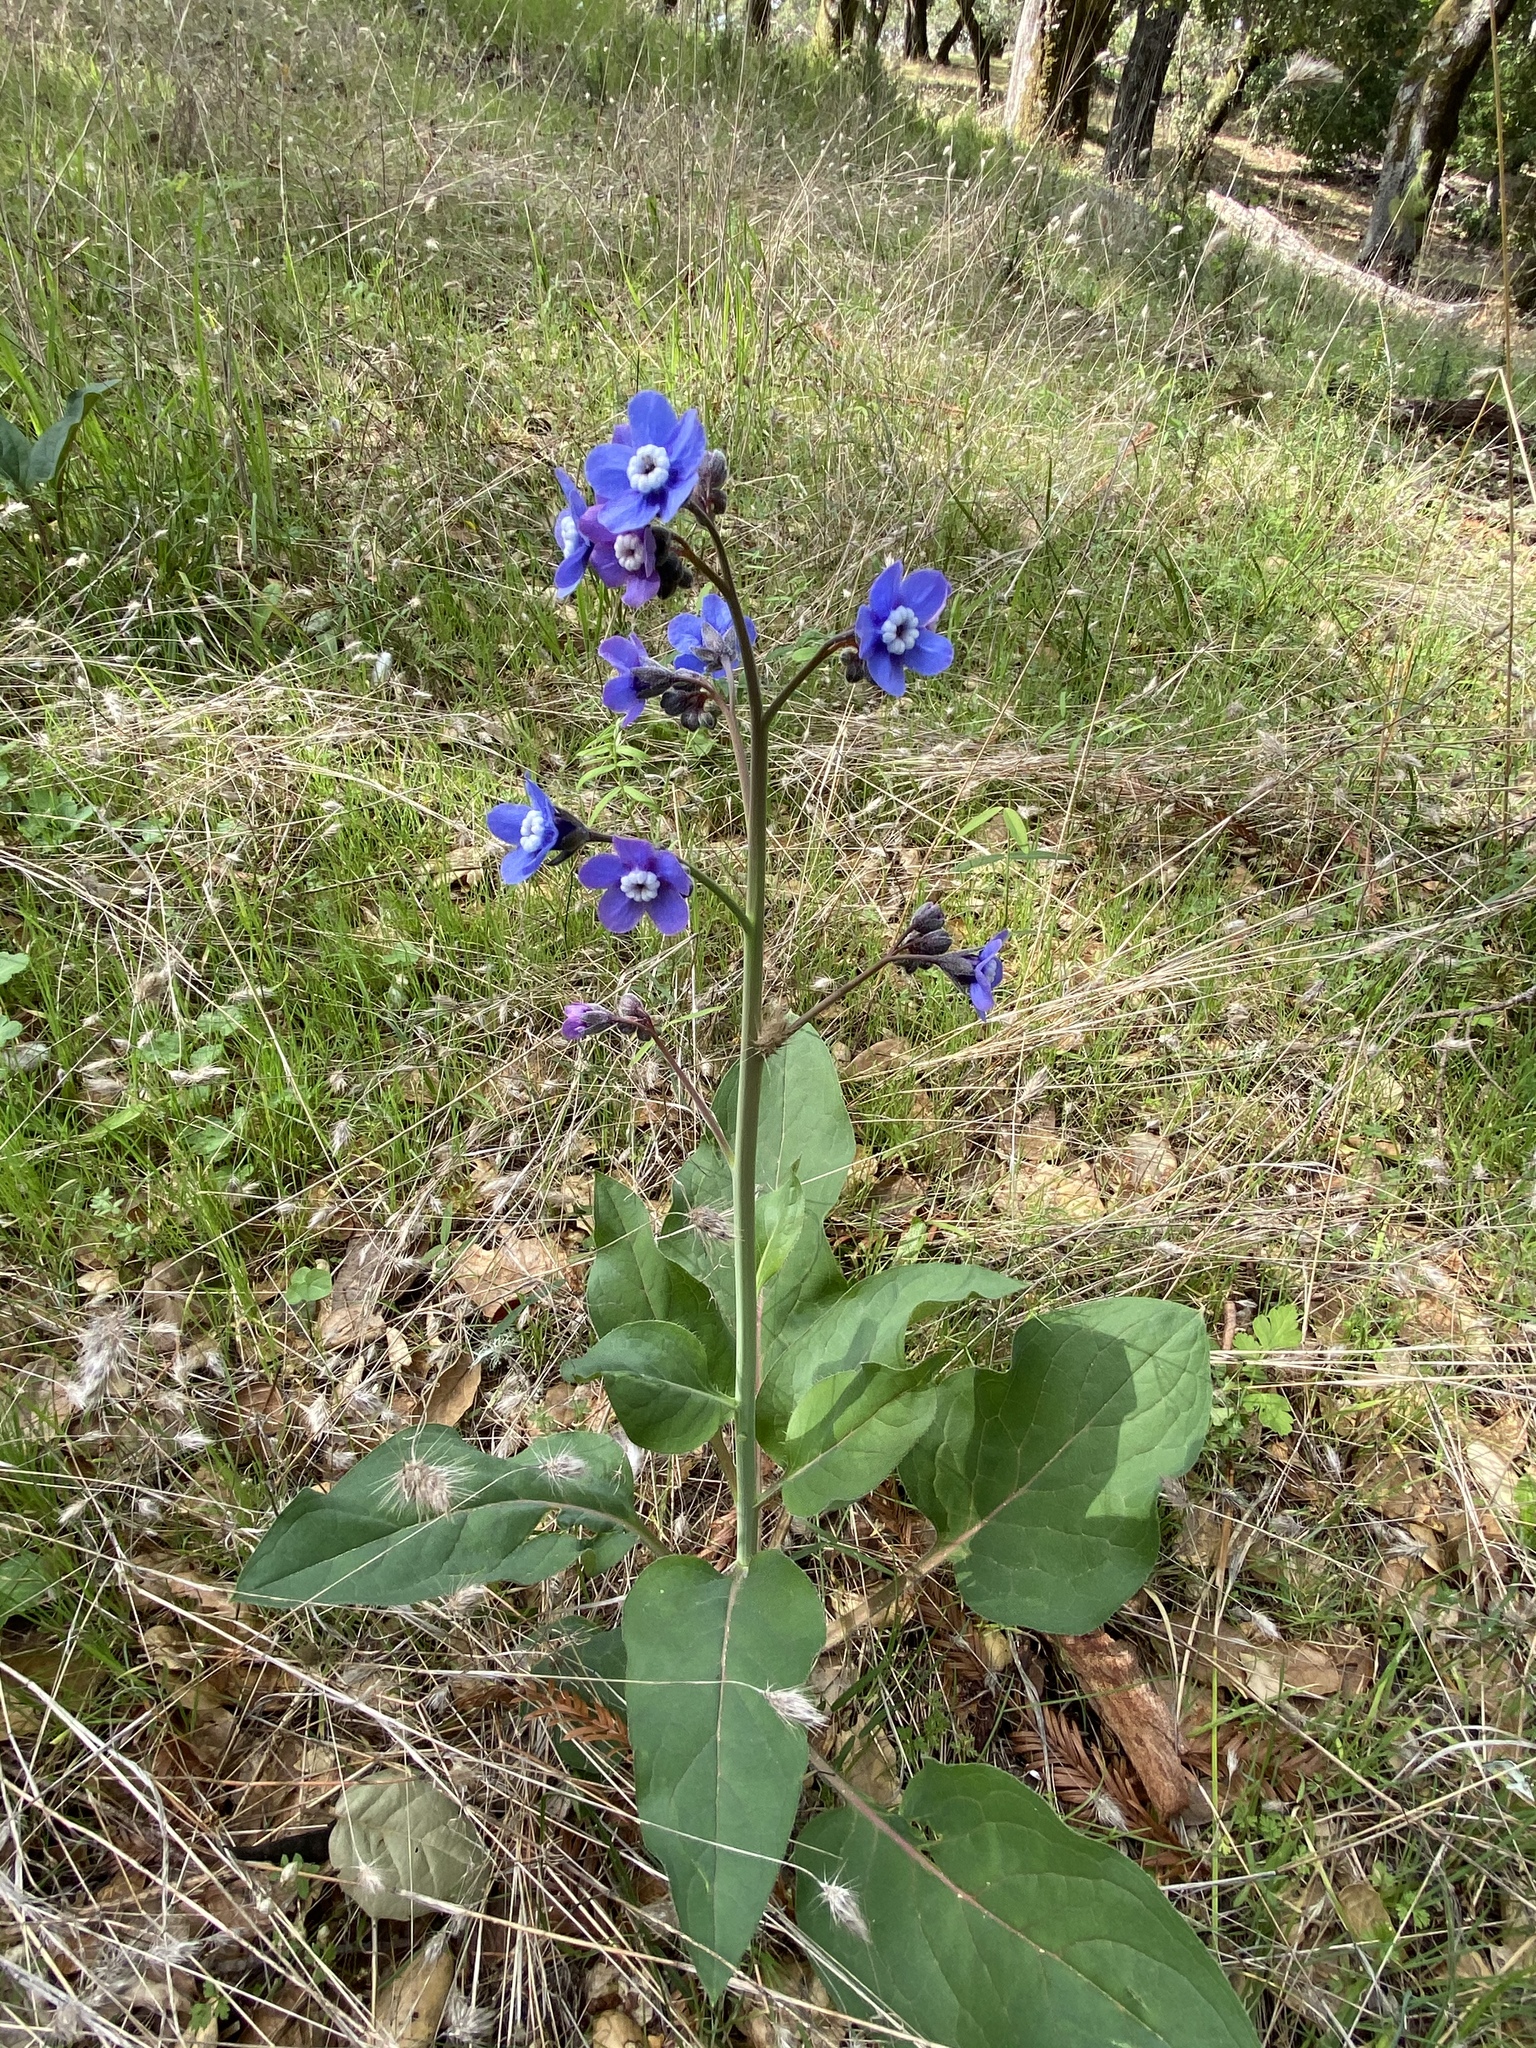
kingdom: Plantae
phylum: Tracheophyta
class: Magnoliopsida
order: Boraginales
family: Boraginaceae
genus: Adelinia
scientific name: Adelinia grande
